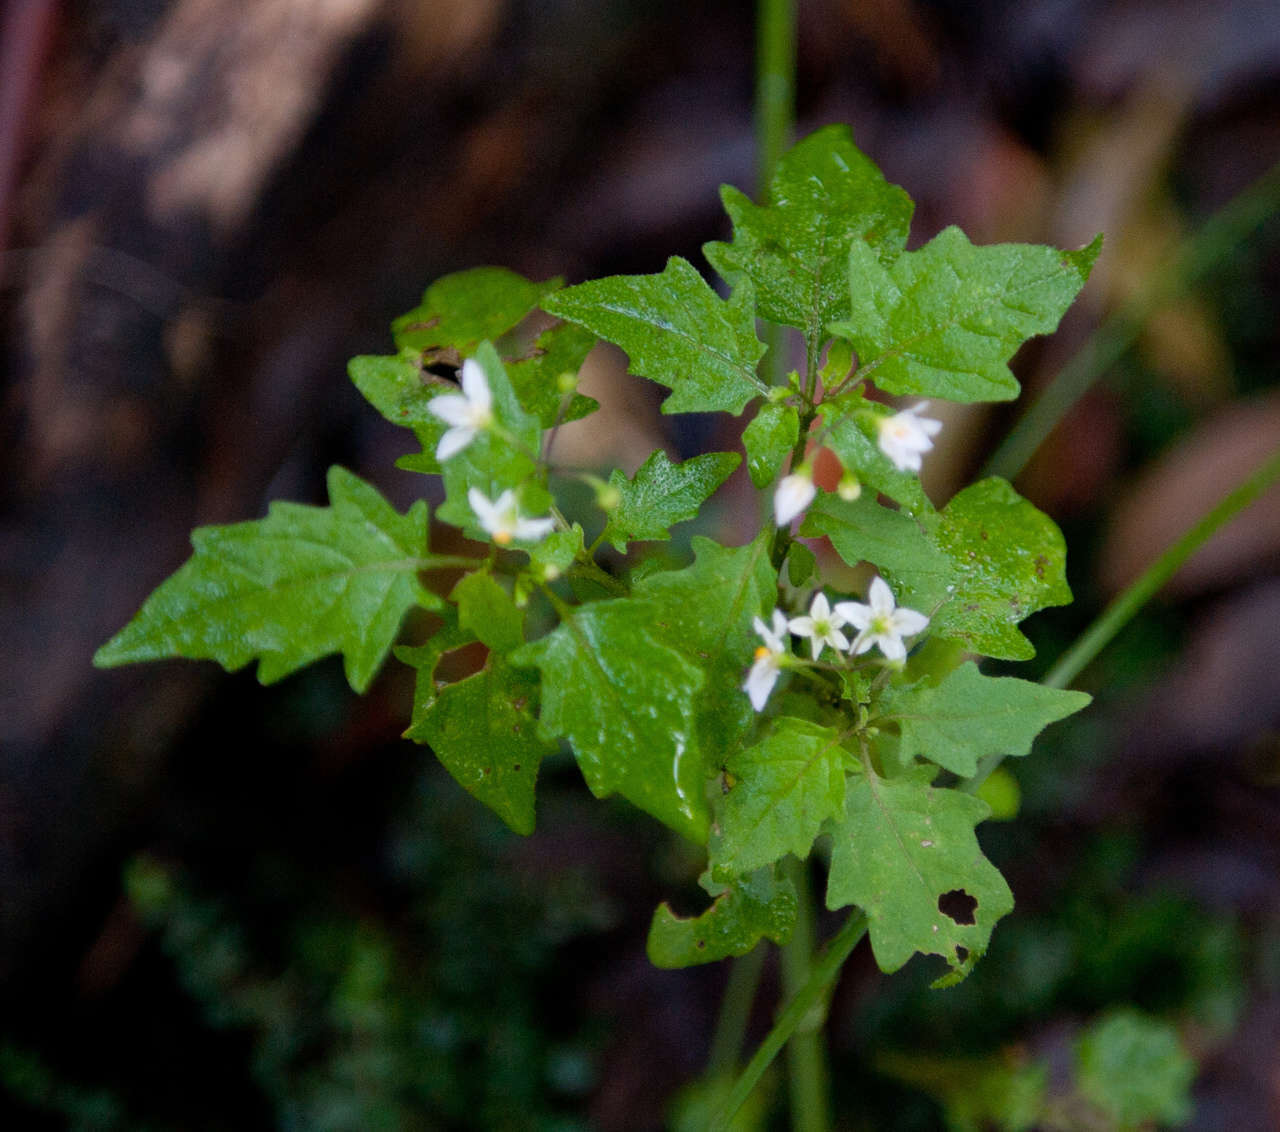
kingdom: Plantae
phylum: Tracheophyta
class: Magnoliopsida
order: Solanales
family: Solanaceae
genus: Solanum
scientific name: Solanum nigrum
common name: Black nightshade
